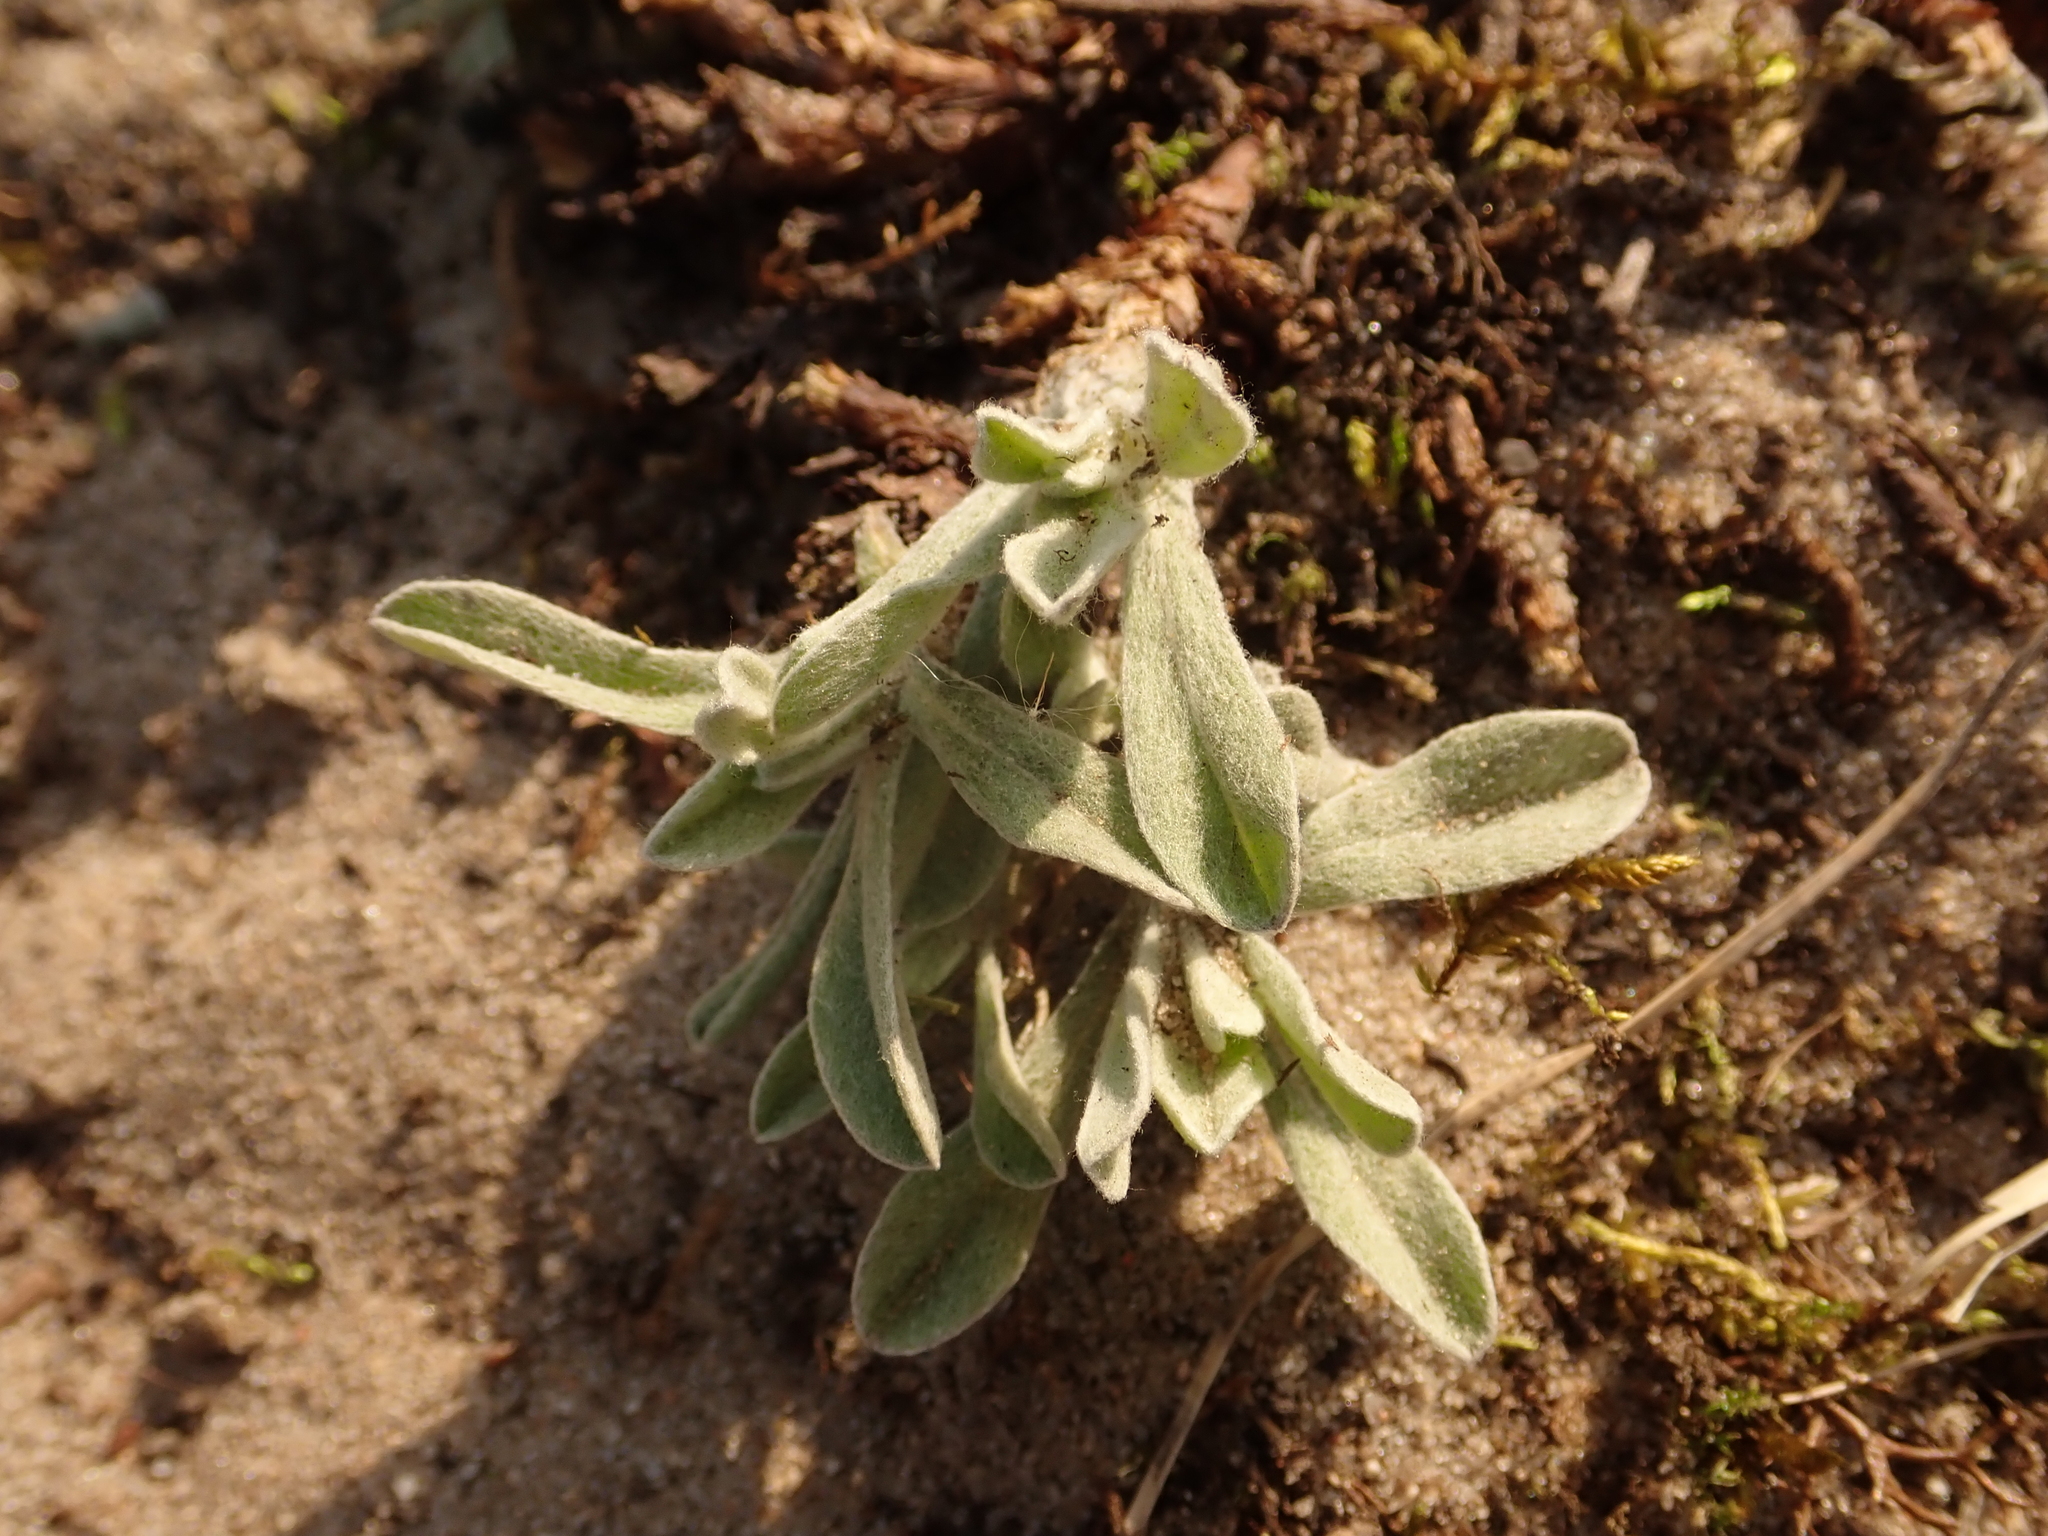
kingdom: Plantae
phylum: Tracheophyta
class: Magnoliopsida
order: Asterales
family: Asteraceae
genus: Helichrysum
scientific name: Helichrysum arenarium
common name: Strawflower
